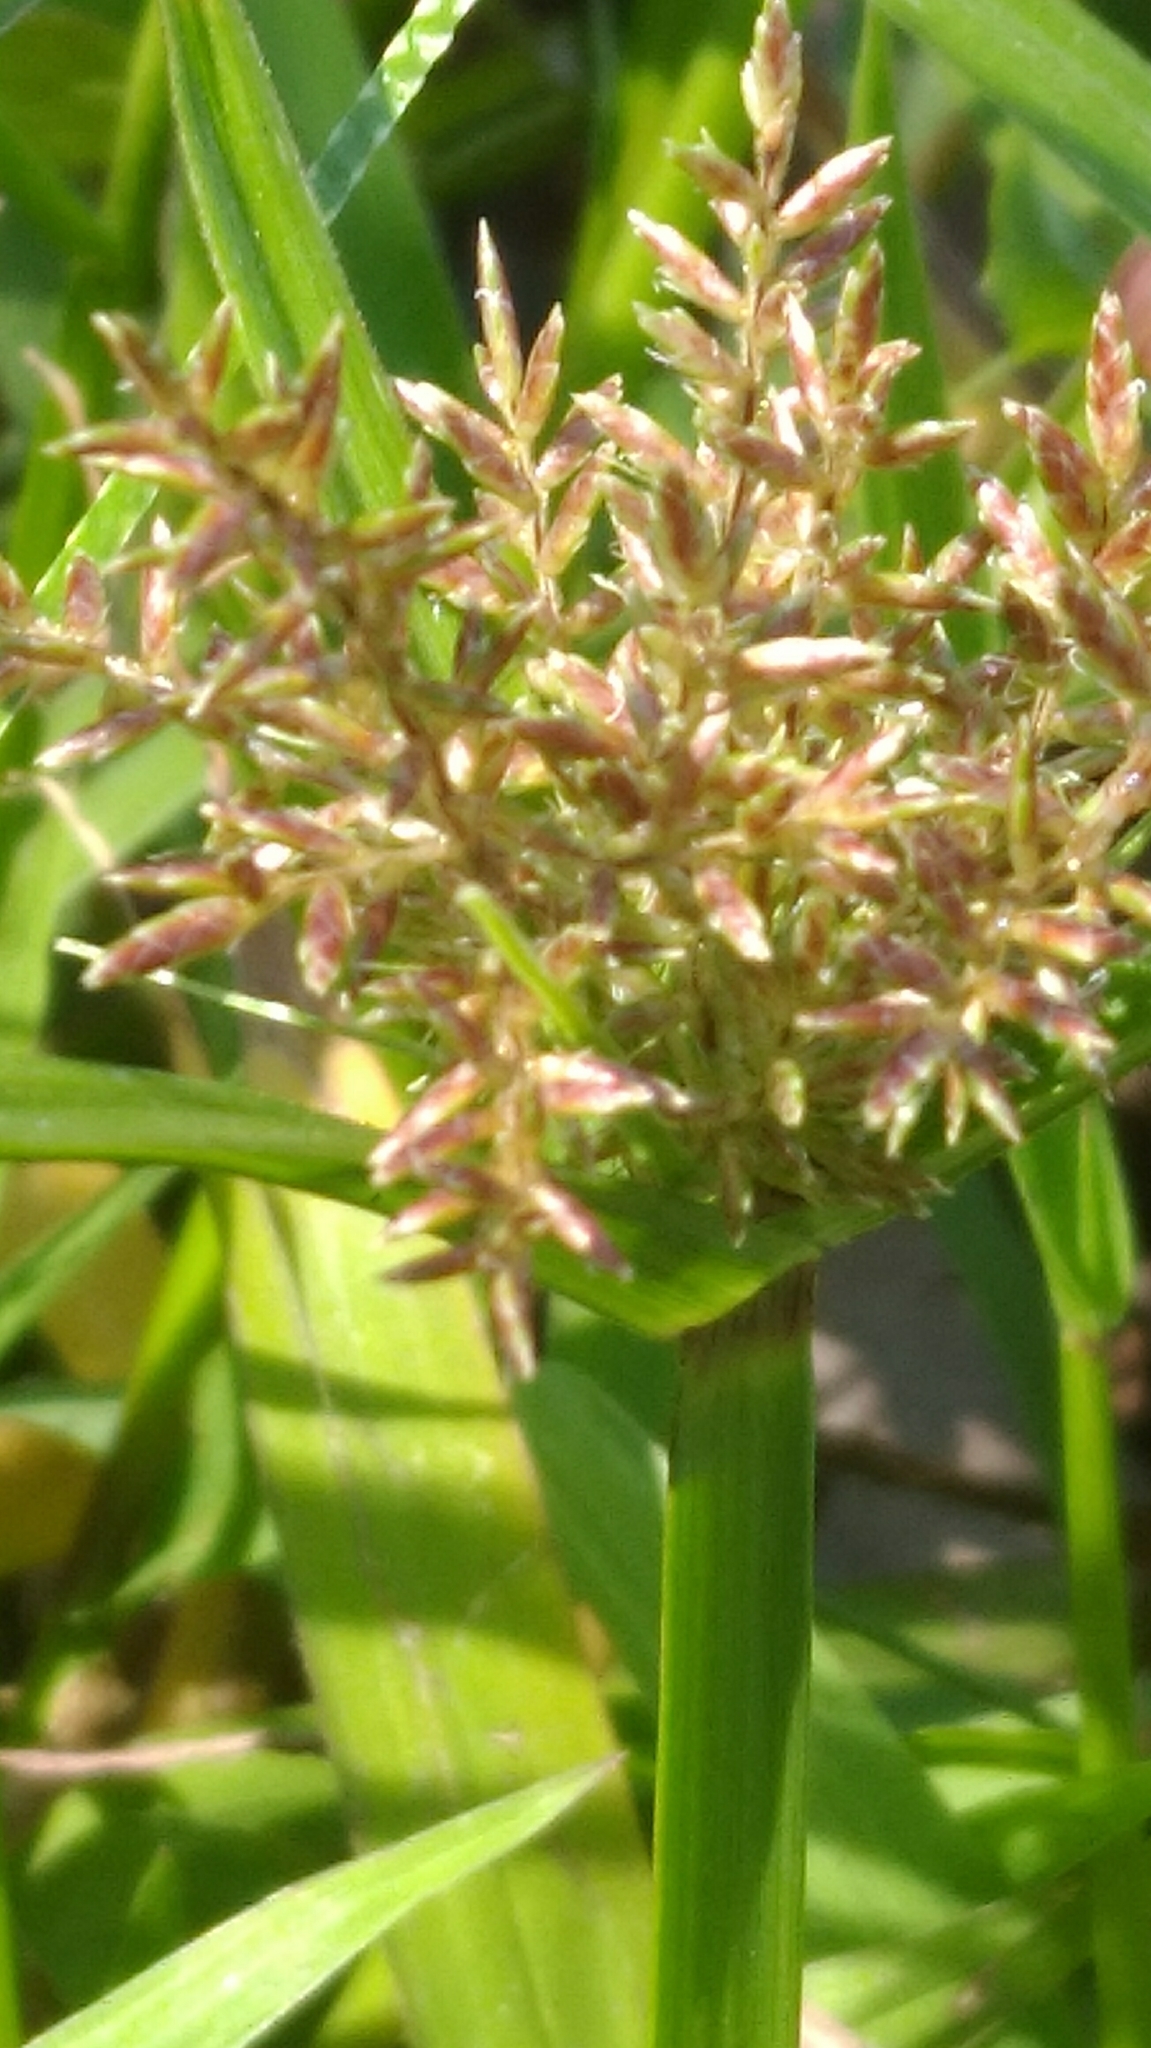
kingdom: Plantae
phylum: Tracheophyta
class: Liliopsida
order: Poales
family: Cyperaceae
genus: Cyperus
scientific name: Cyperus odoratus
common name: Fragrant flatsedge
